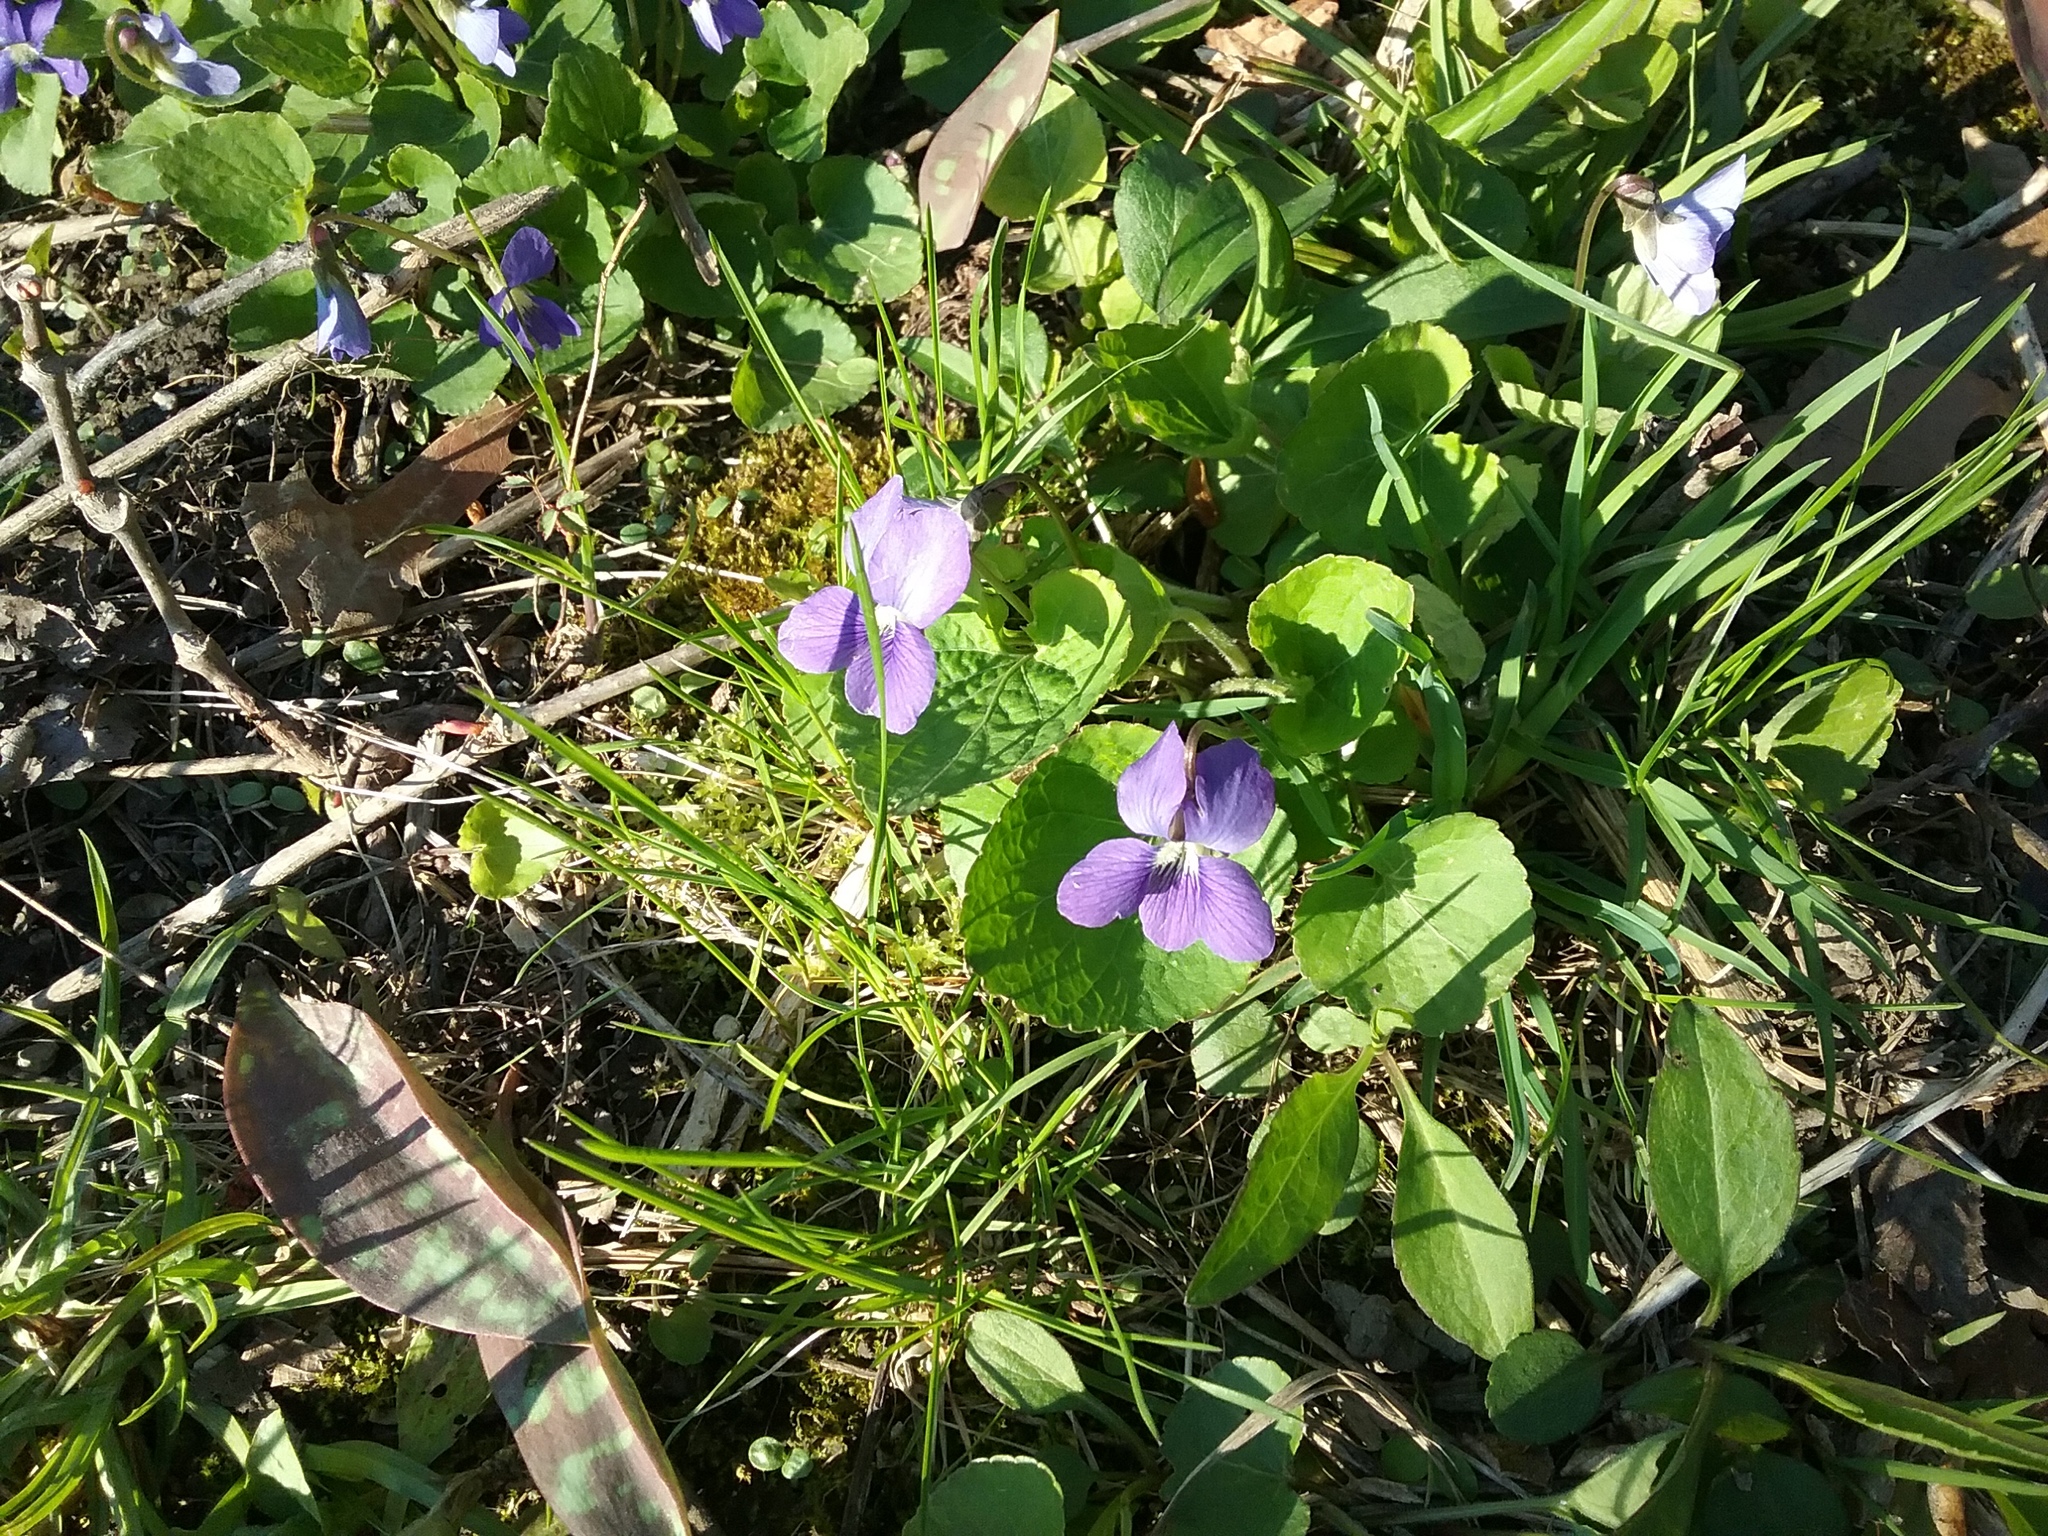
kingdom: Plantae
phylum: Tracheophyta
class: Magnoliopsida
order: Malpighiales
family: Violaceae
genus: Viola
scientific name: Viola sororia
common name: Dooryard violet
